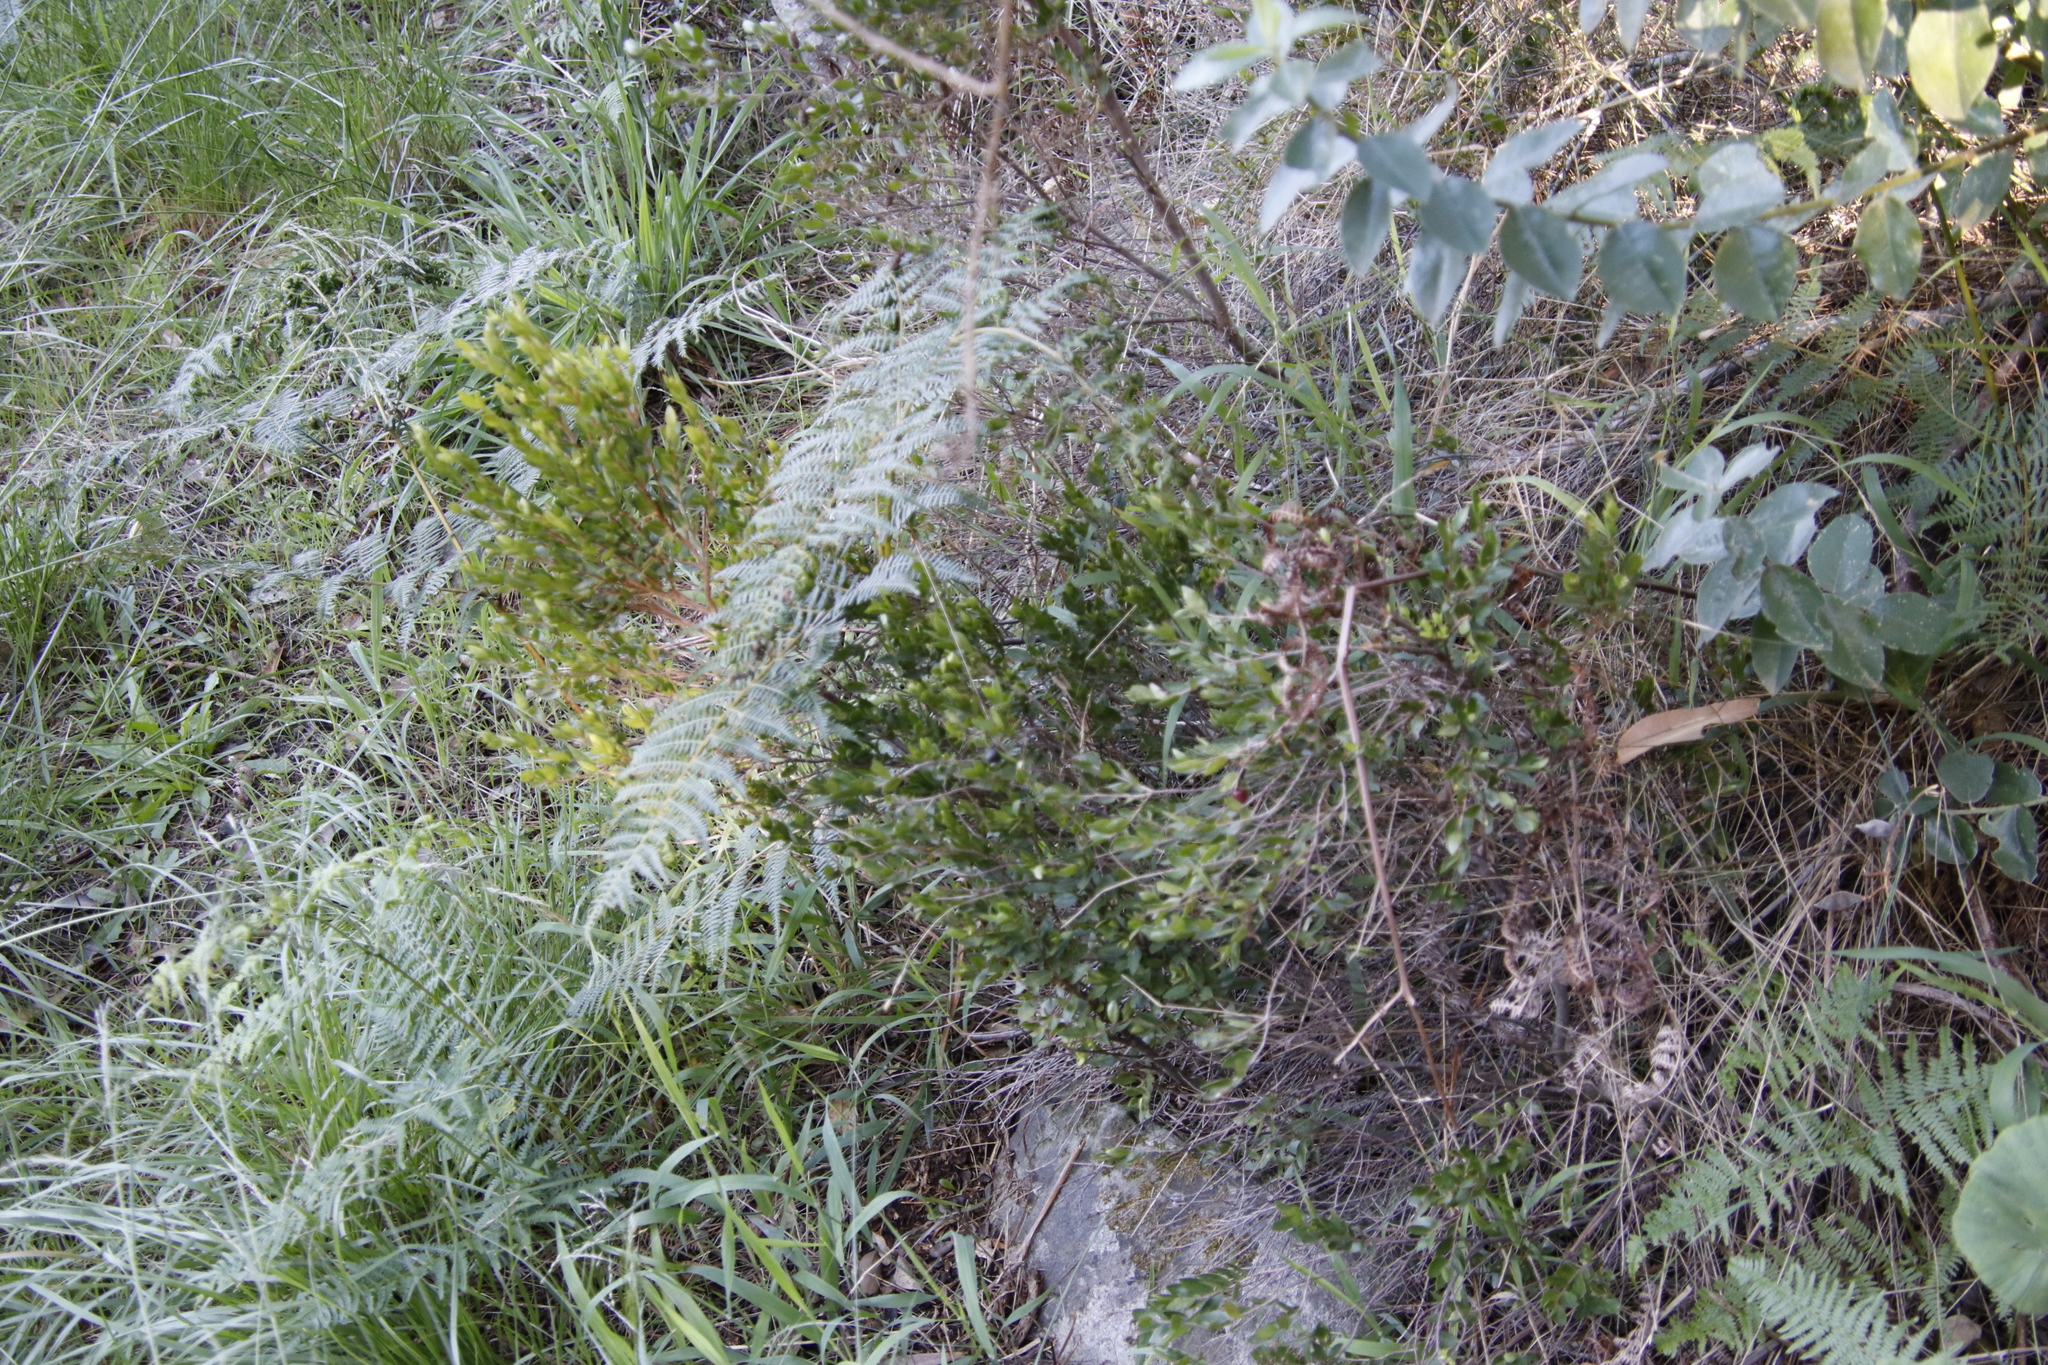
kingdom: Plantae
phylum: Tracheophyta
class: Magnoliopsida
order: Ericales
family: Ebenaceae
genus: Diospyros
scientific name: Diospyros glabra
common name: Fynbos star apple
